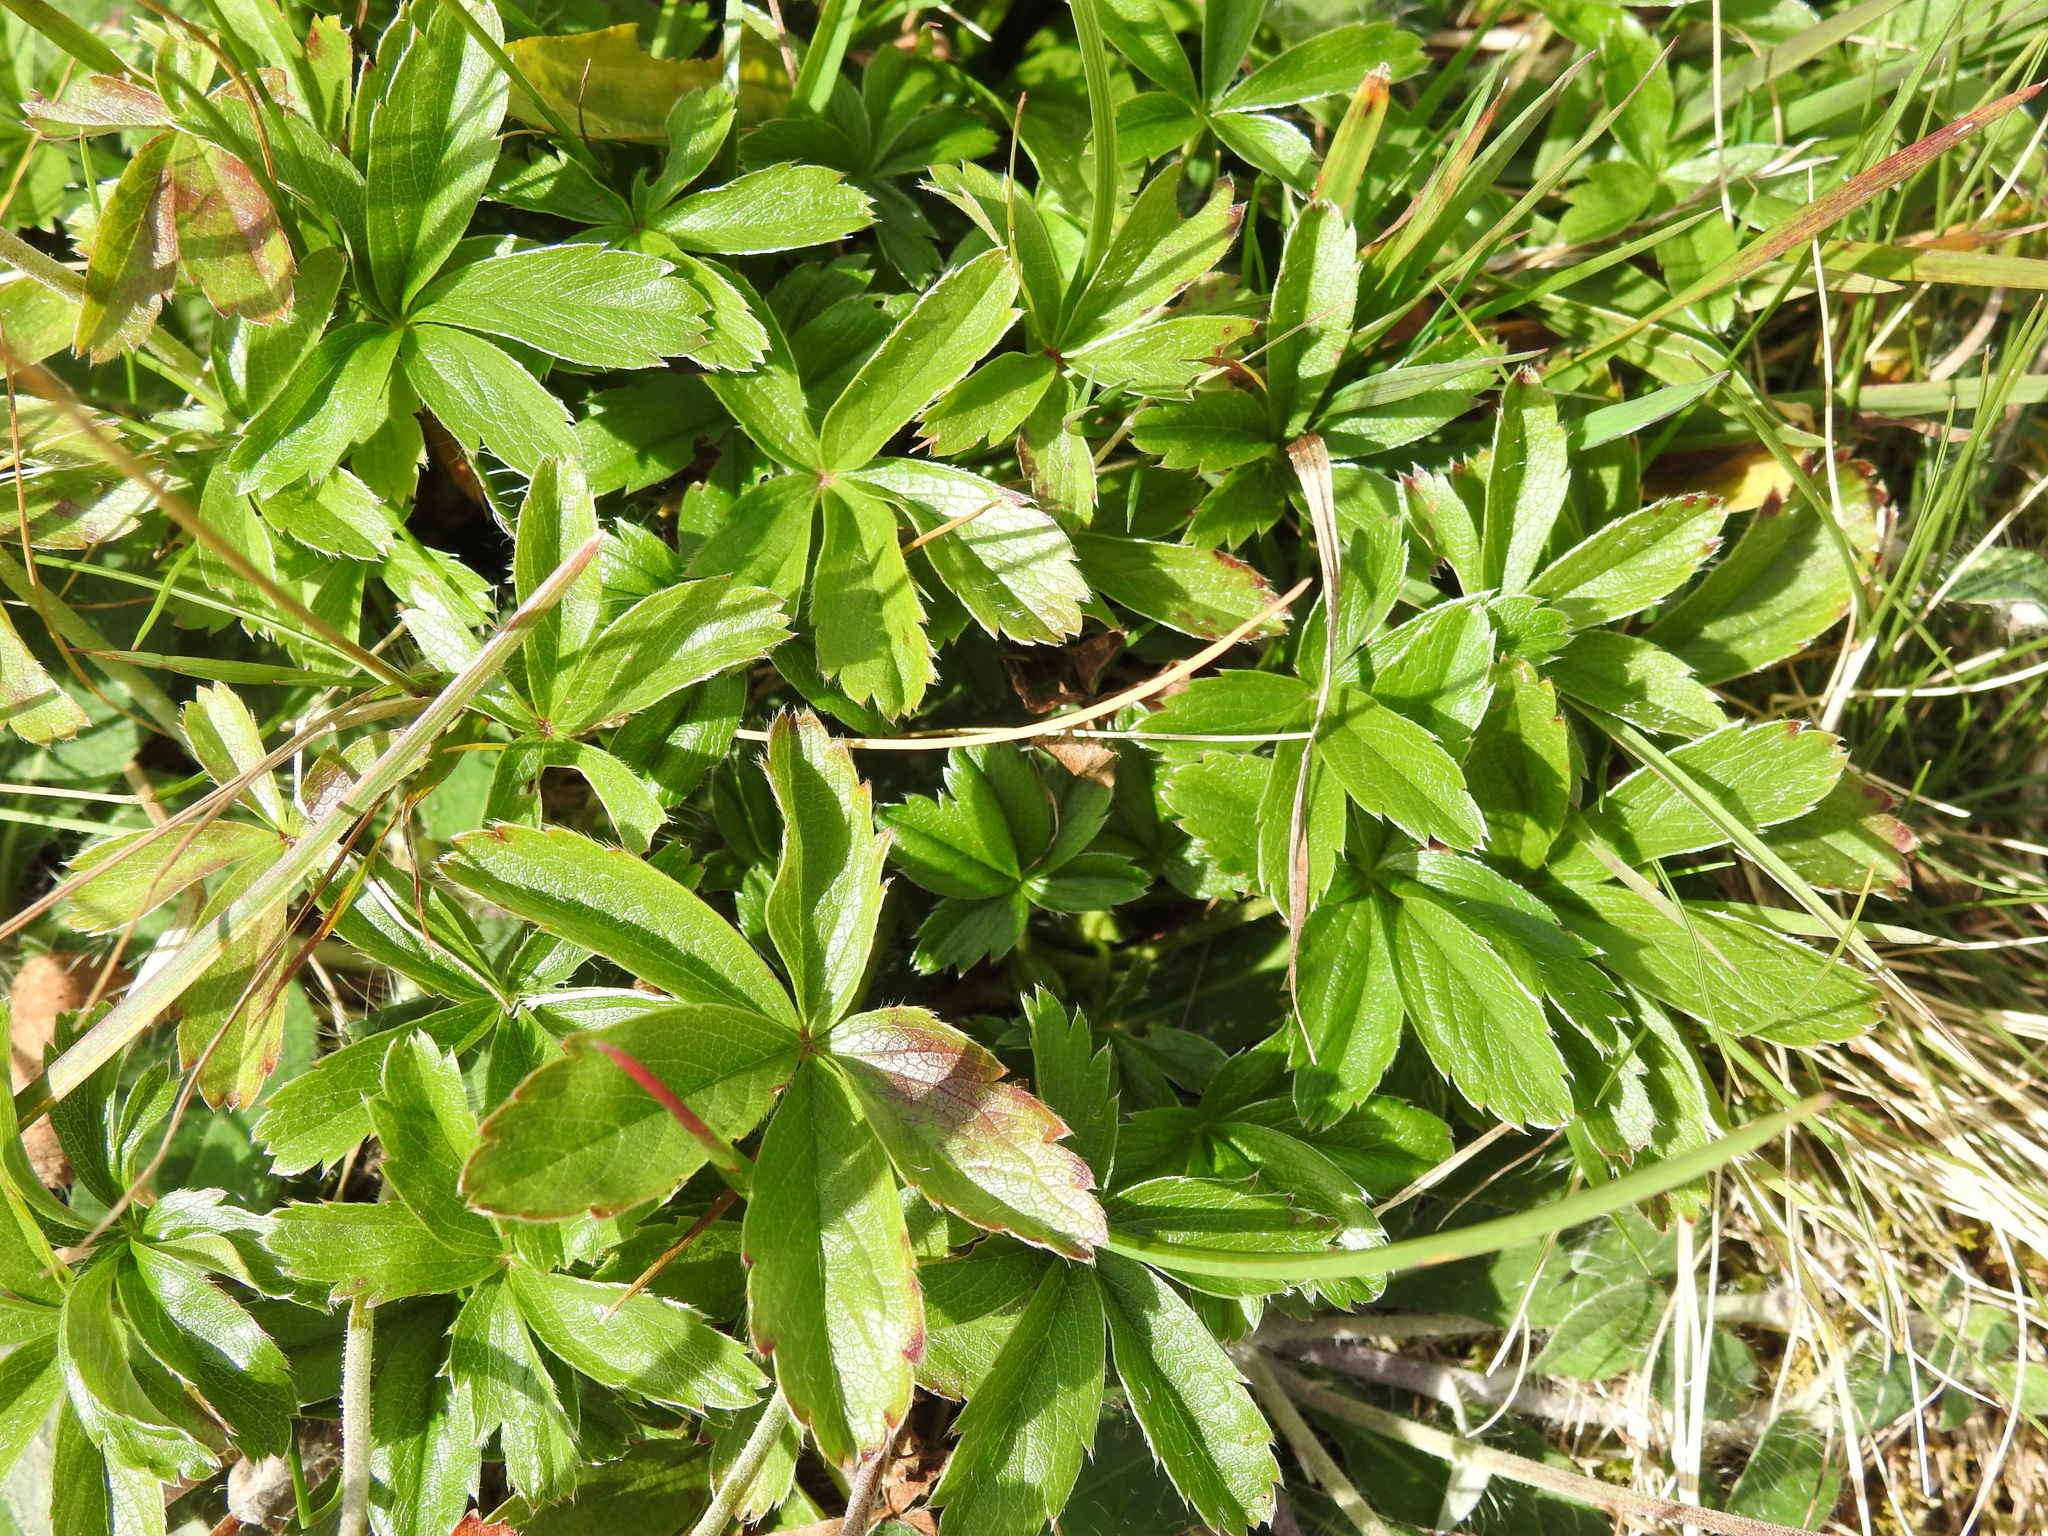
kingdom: Plantae
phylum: Tracheophyta
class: Magnoliopsida
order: Rosales
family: Rosaceae
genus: Potentilla
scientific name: Potentilla aurea
